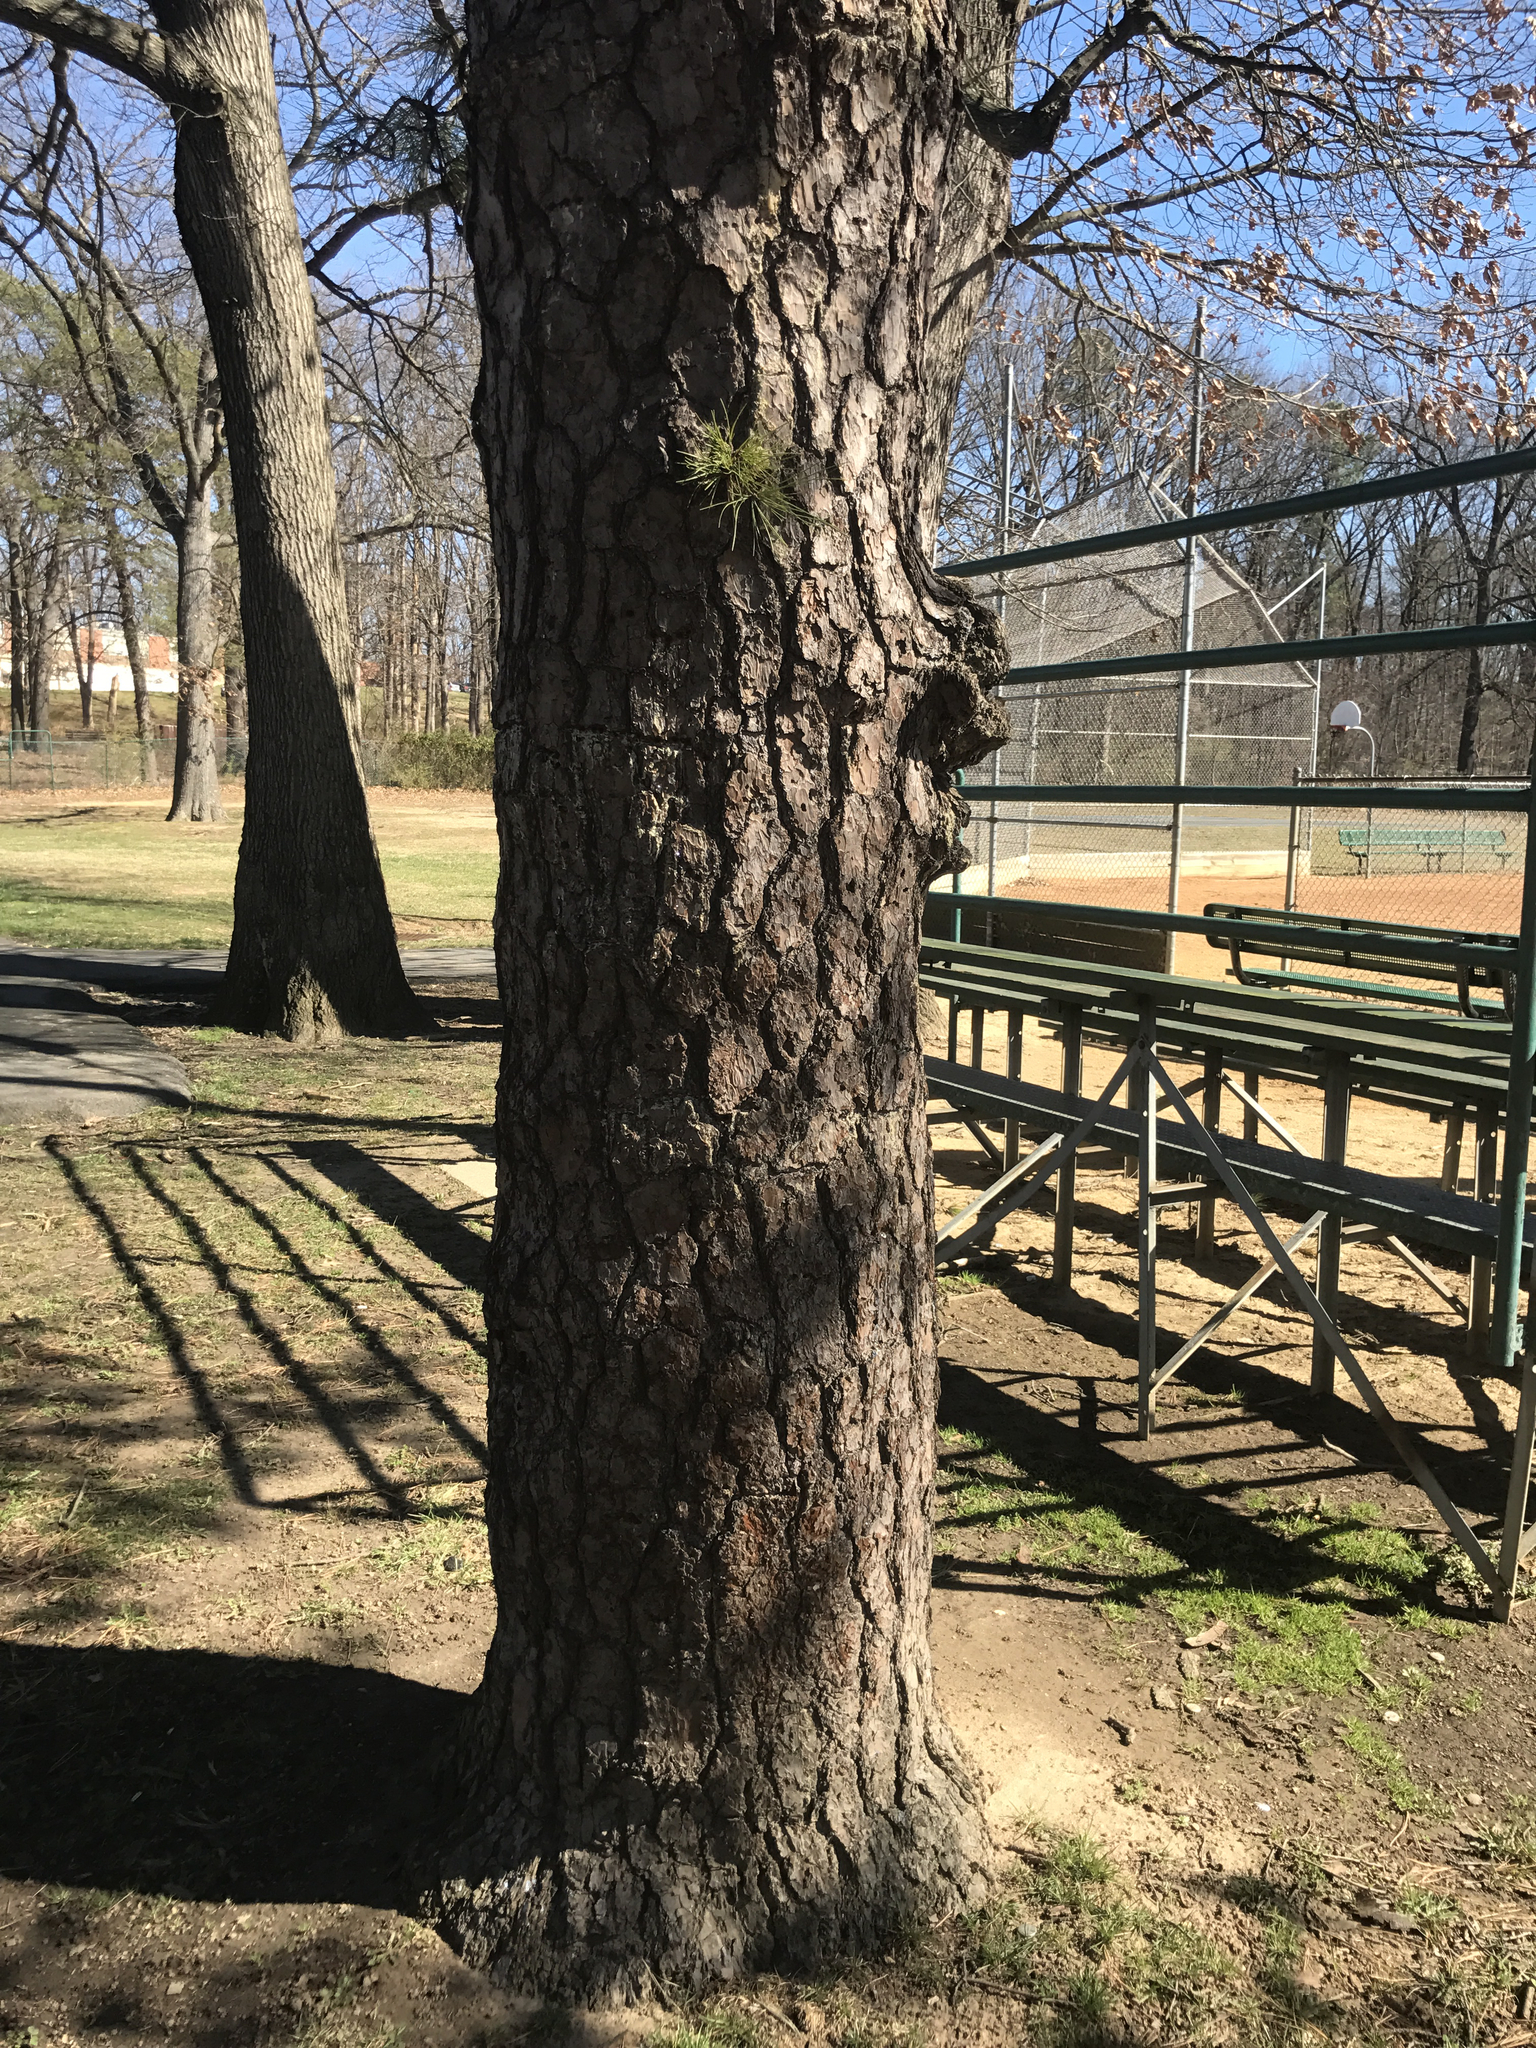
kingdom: Plantae
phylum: Tracheophyta
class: Pinopsida
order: Pinales
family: Pinaceae
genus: Pinus
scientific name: Pinus rigida
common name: Pitch pine
